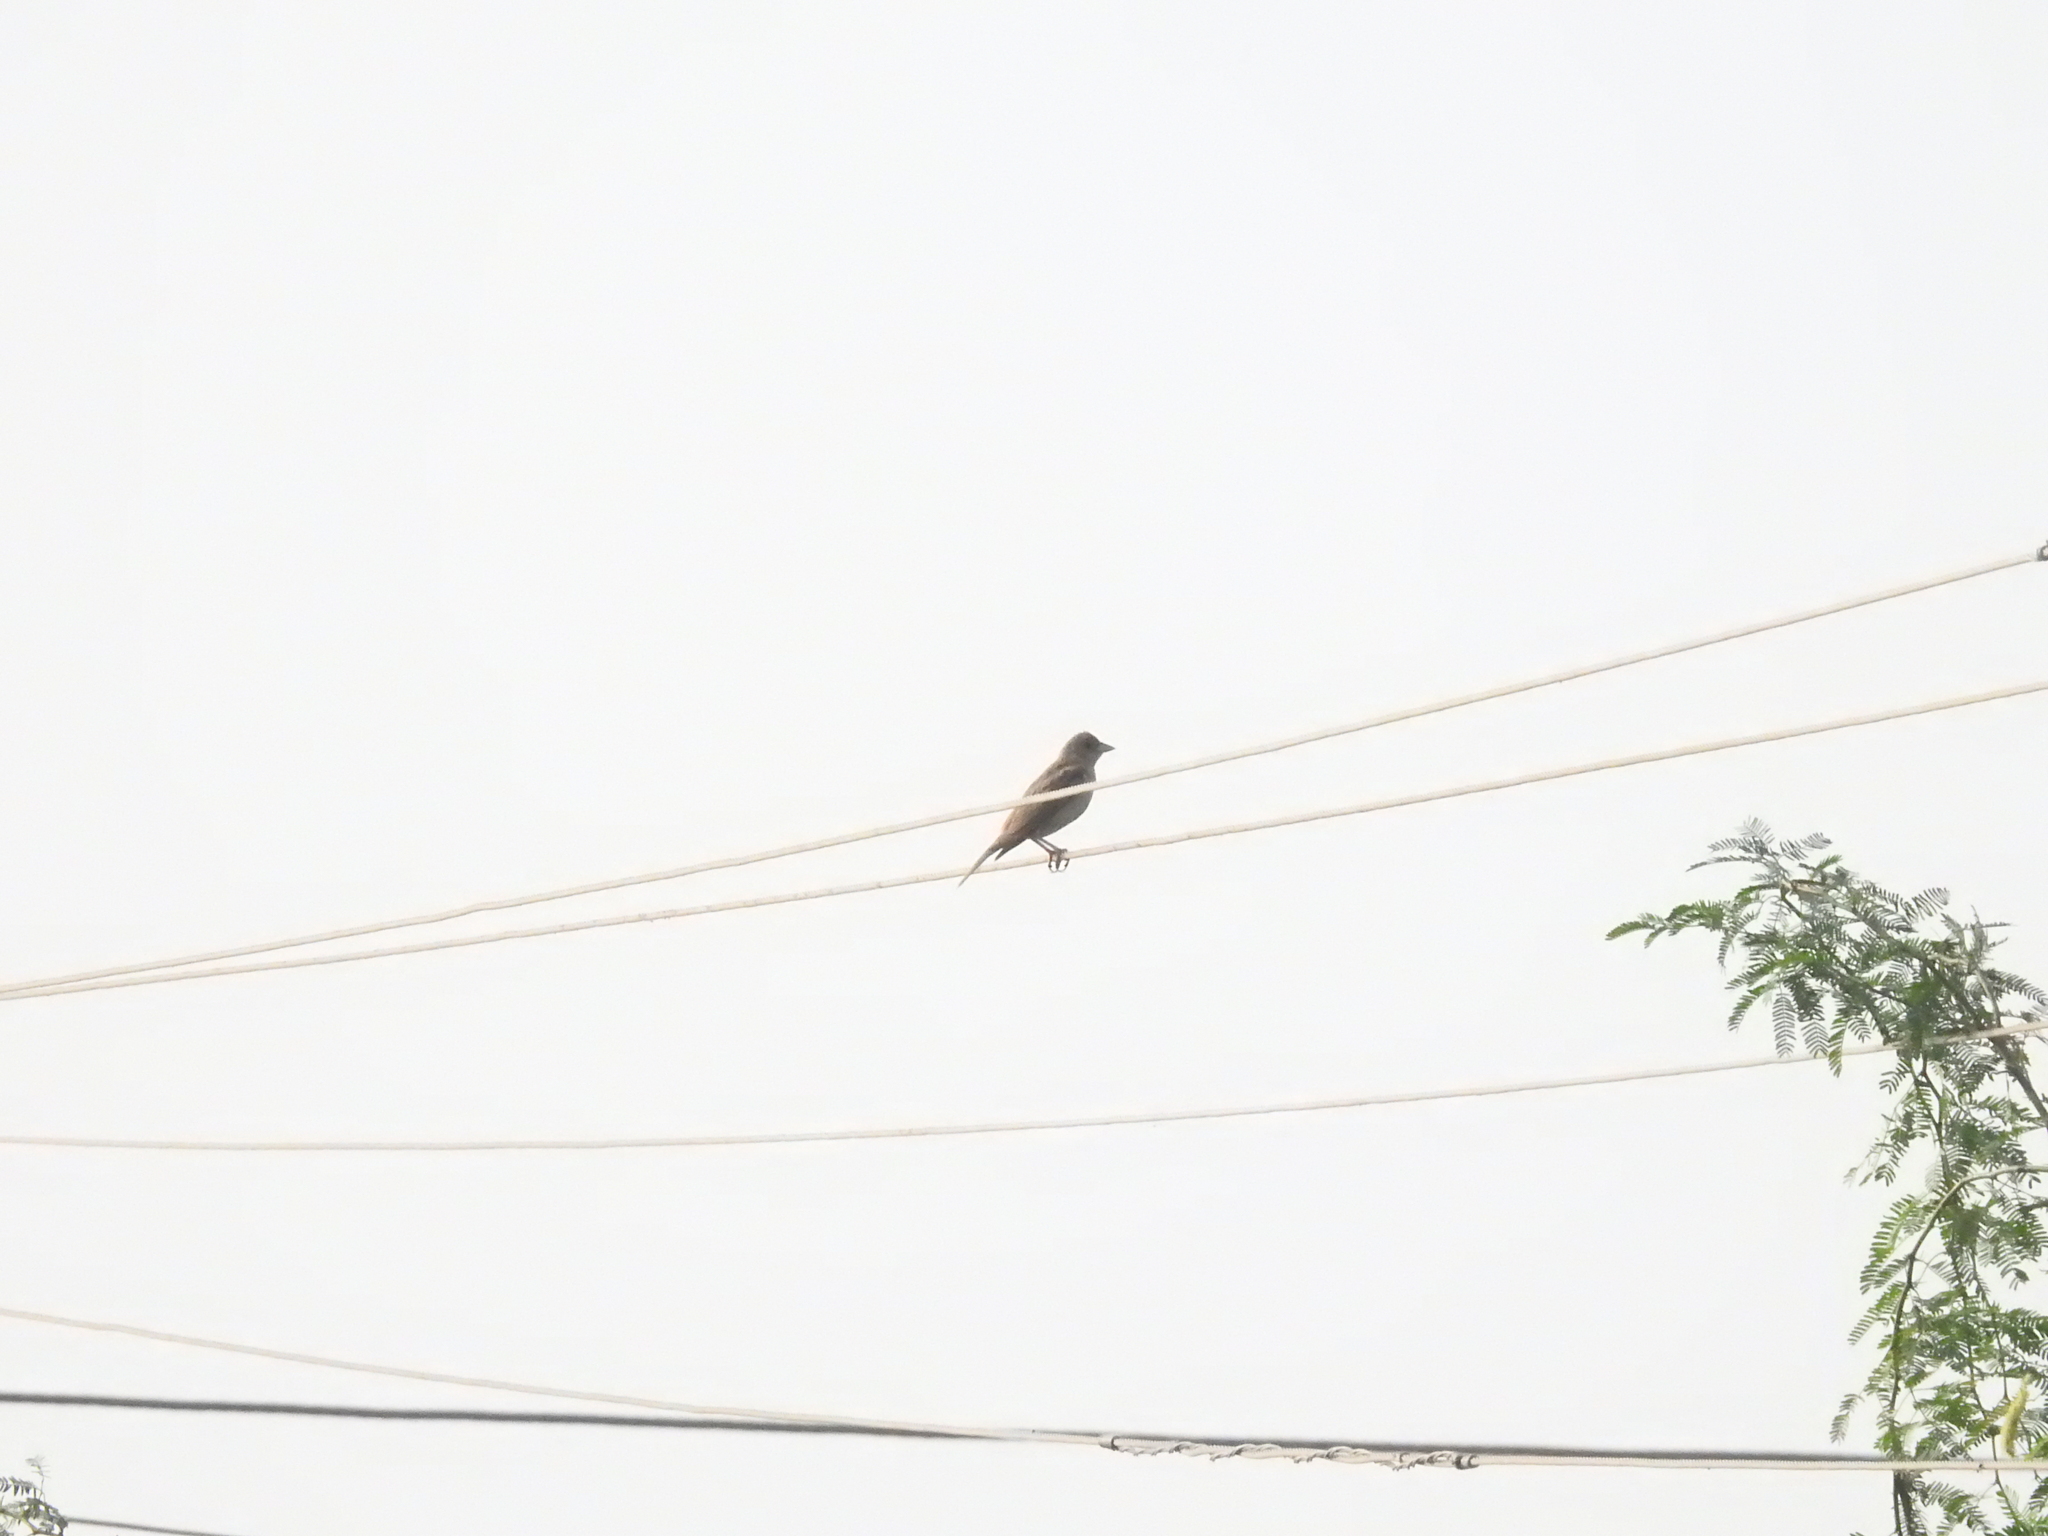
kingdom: Animalia
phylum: Chordata
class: Aves
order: Passeriformes
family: Passeridae
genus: Gymnoris
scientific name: Gymnoris xanthocollis
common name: Yellow-throated sparrow
